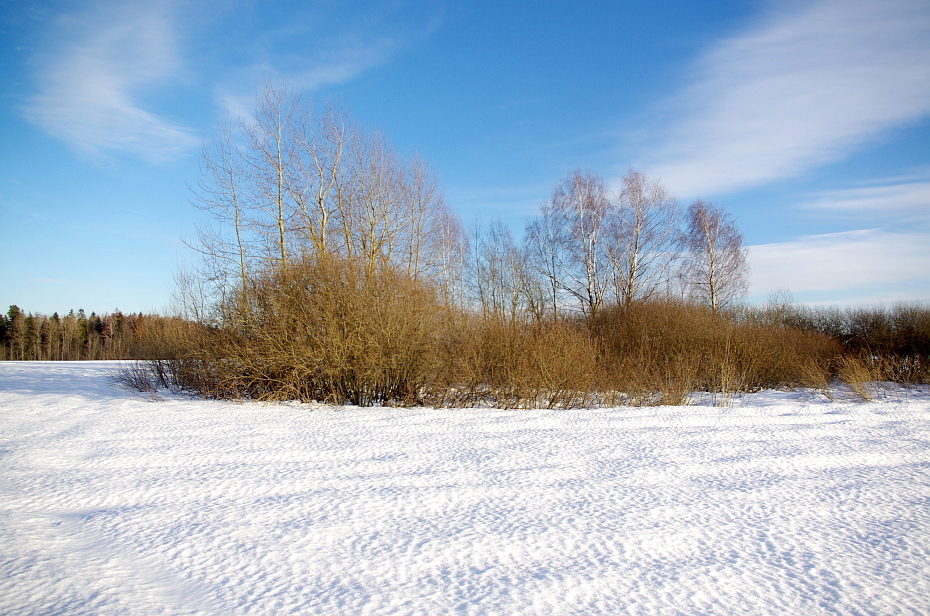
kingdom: Plantae
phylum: Tracheophyta
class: Magnoliopsida
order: Malpighiales
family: Salicaceae
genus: Salix
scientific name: Salix cinerea
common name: Common sallow
